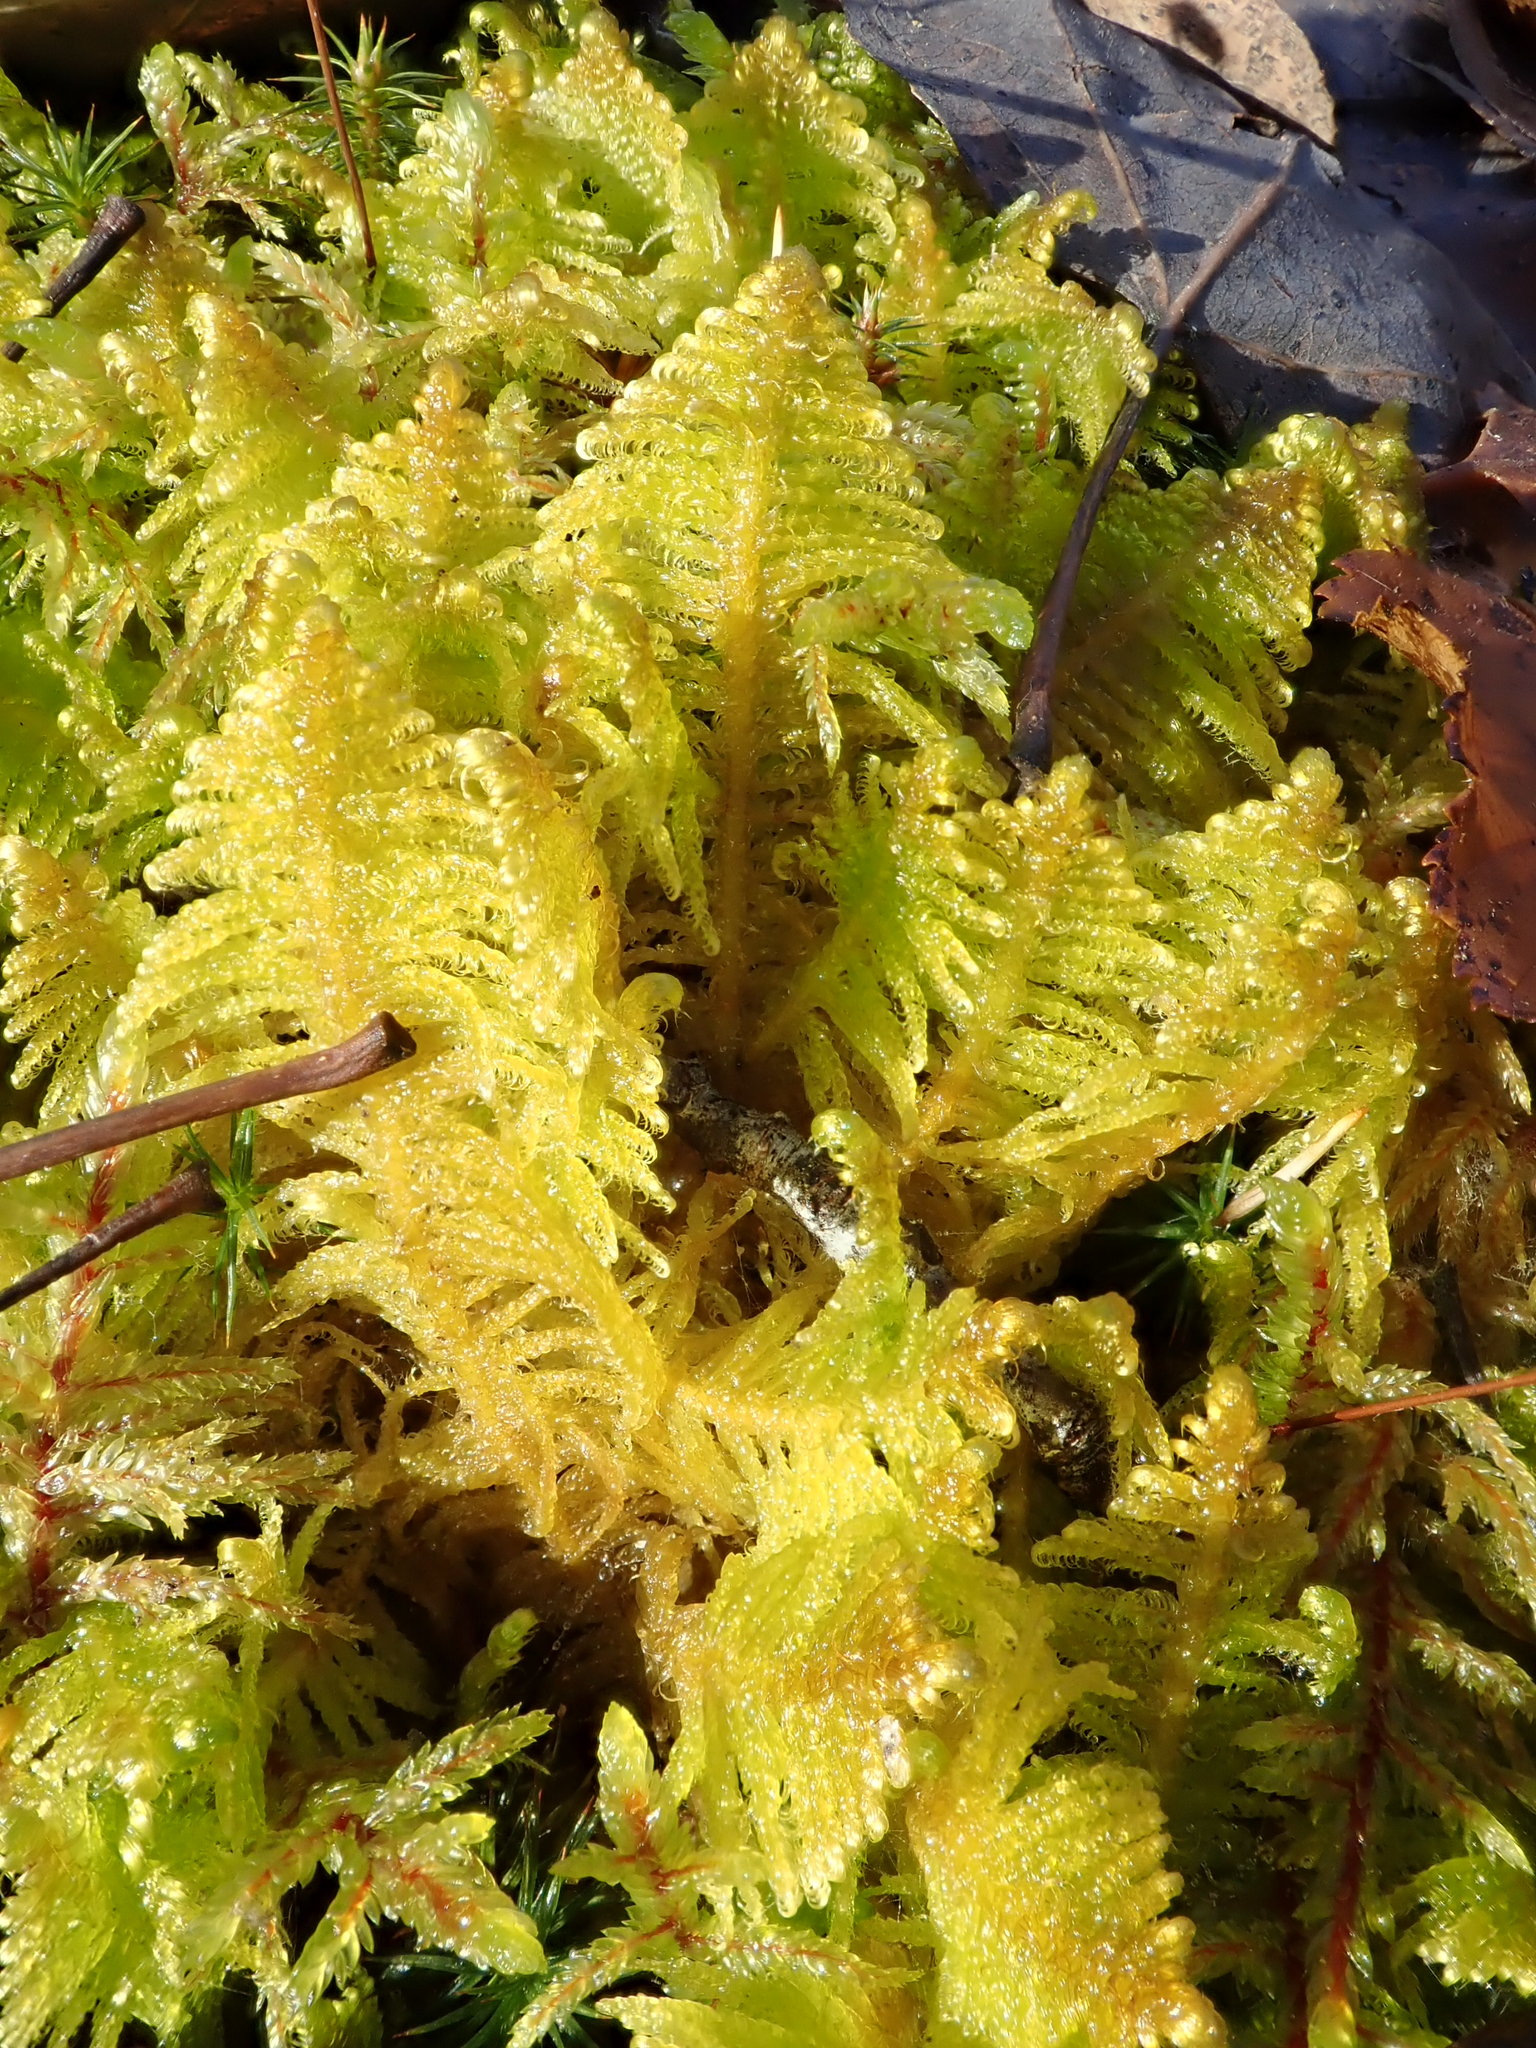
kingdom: Plantae
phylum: Bryophyta
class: Bryopsida
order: Hypnales
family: Pylaisiaceae
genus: Ptilium
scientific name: Ptilium crista-castrensis
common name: Knight's plume moss
